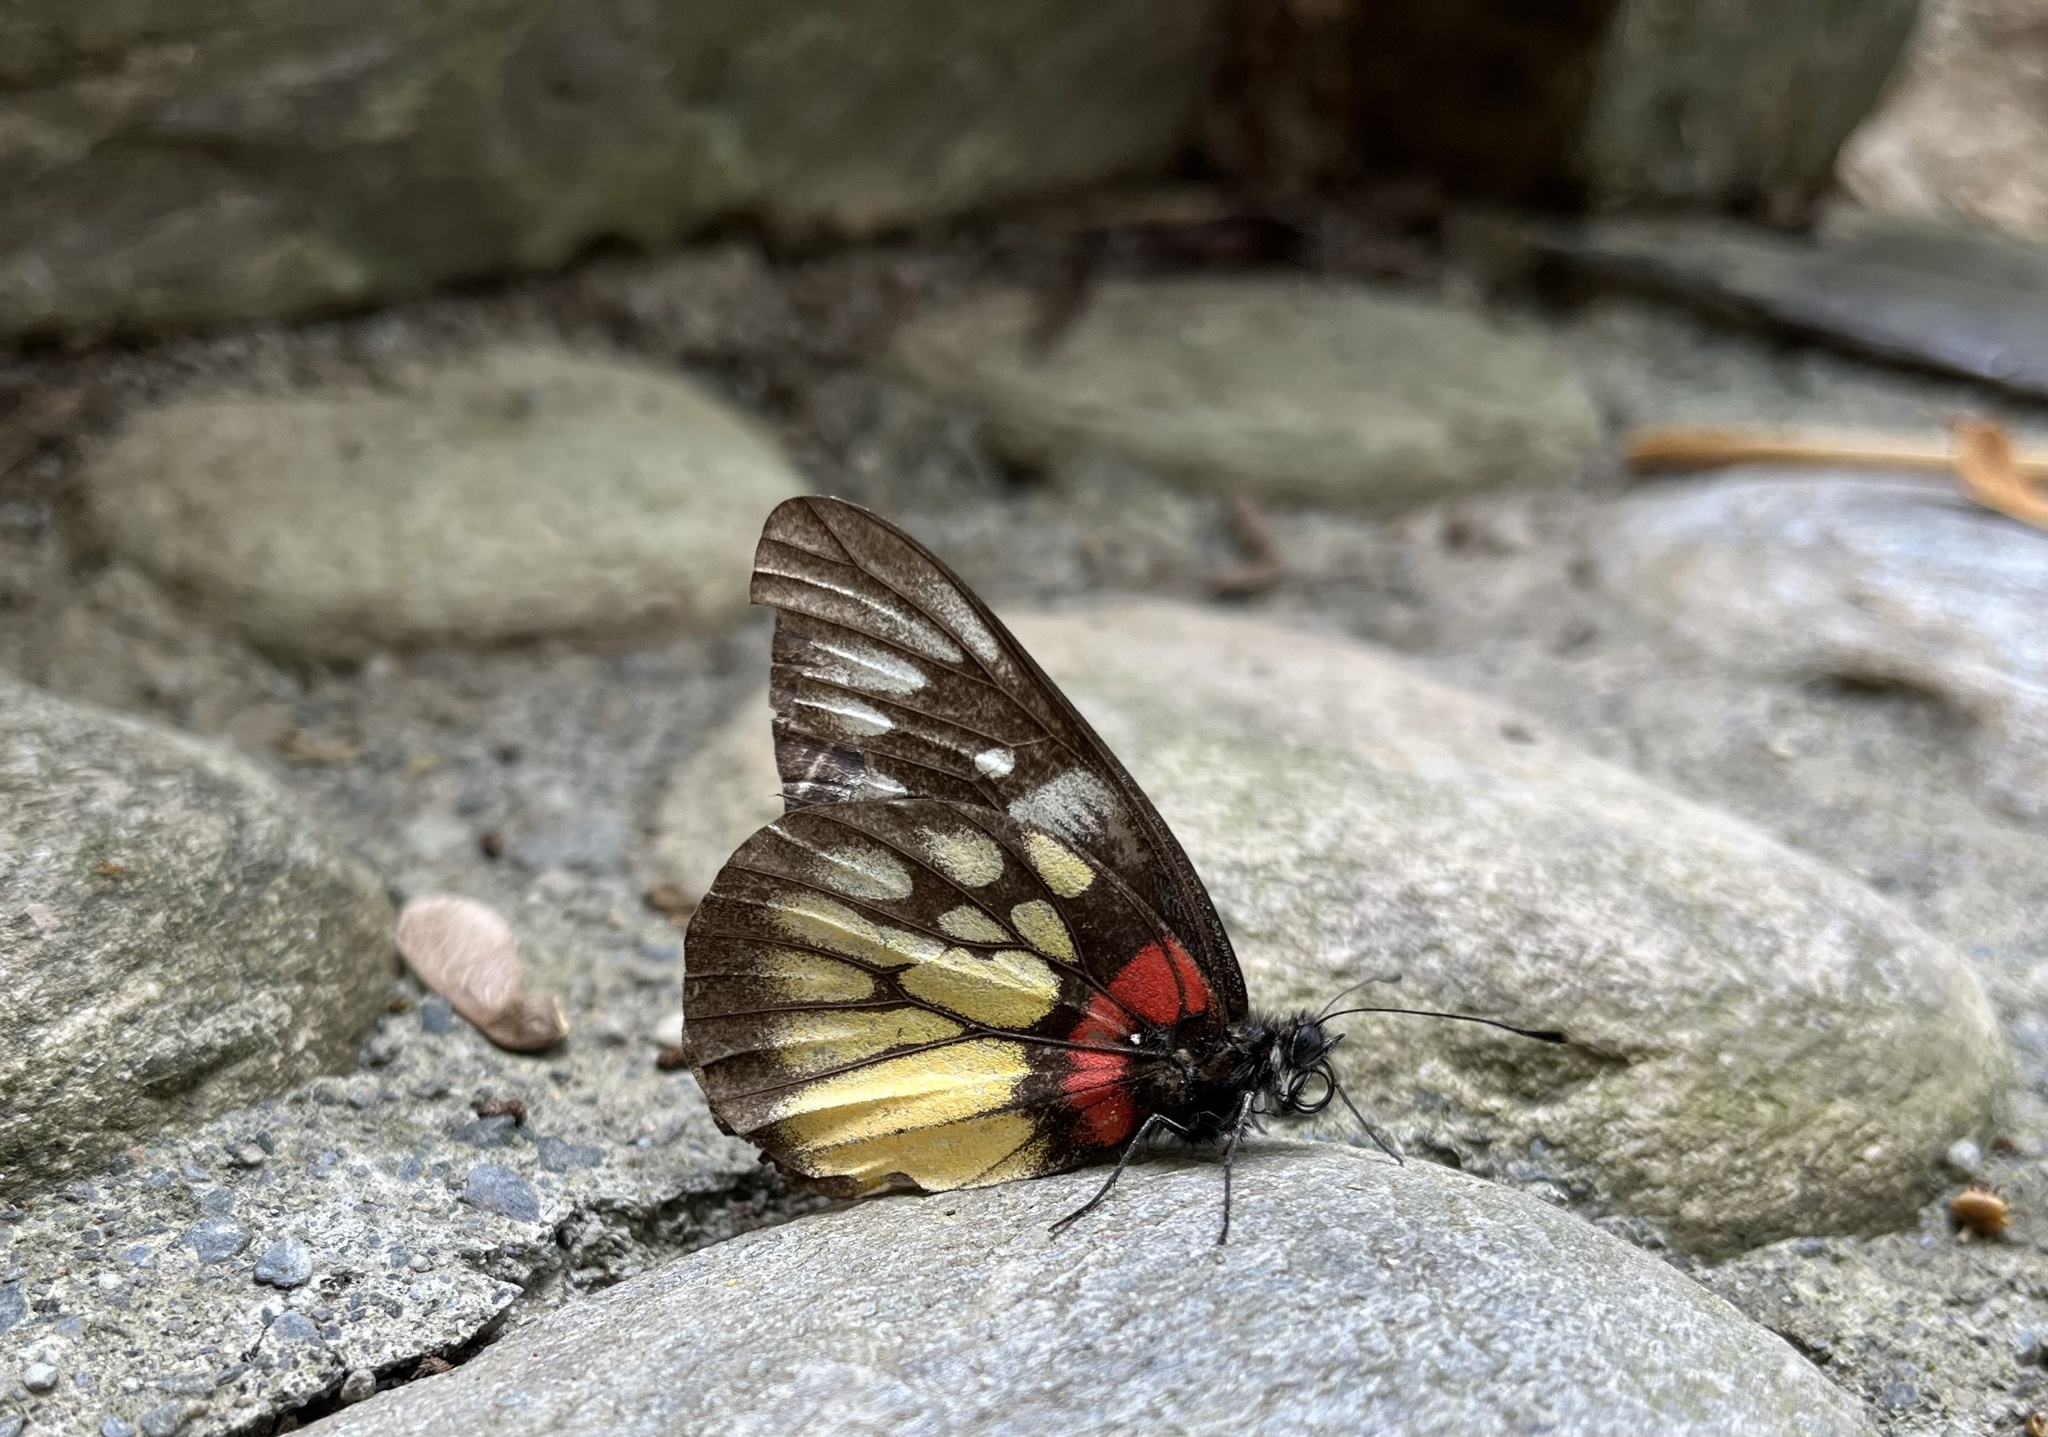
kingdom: Animalia
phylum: Arthropoda
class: Insecta
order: Lepidoptera
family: Pieridae
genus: Delias
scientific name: Delias pasithoe
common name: Red-base jezebel
